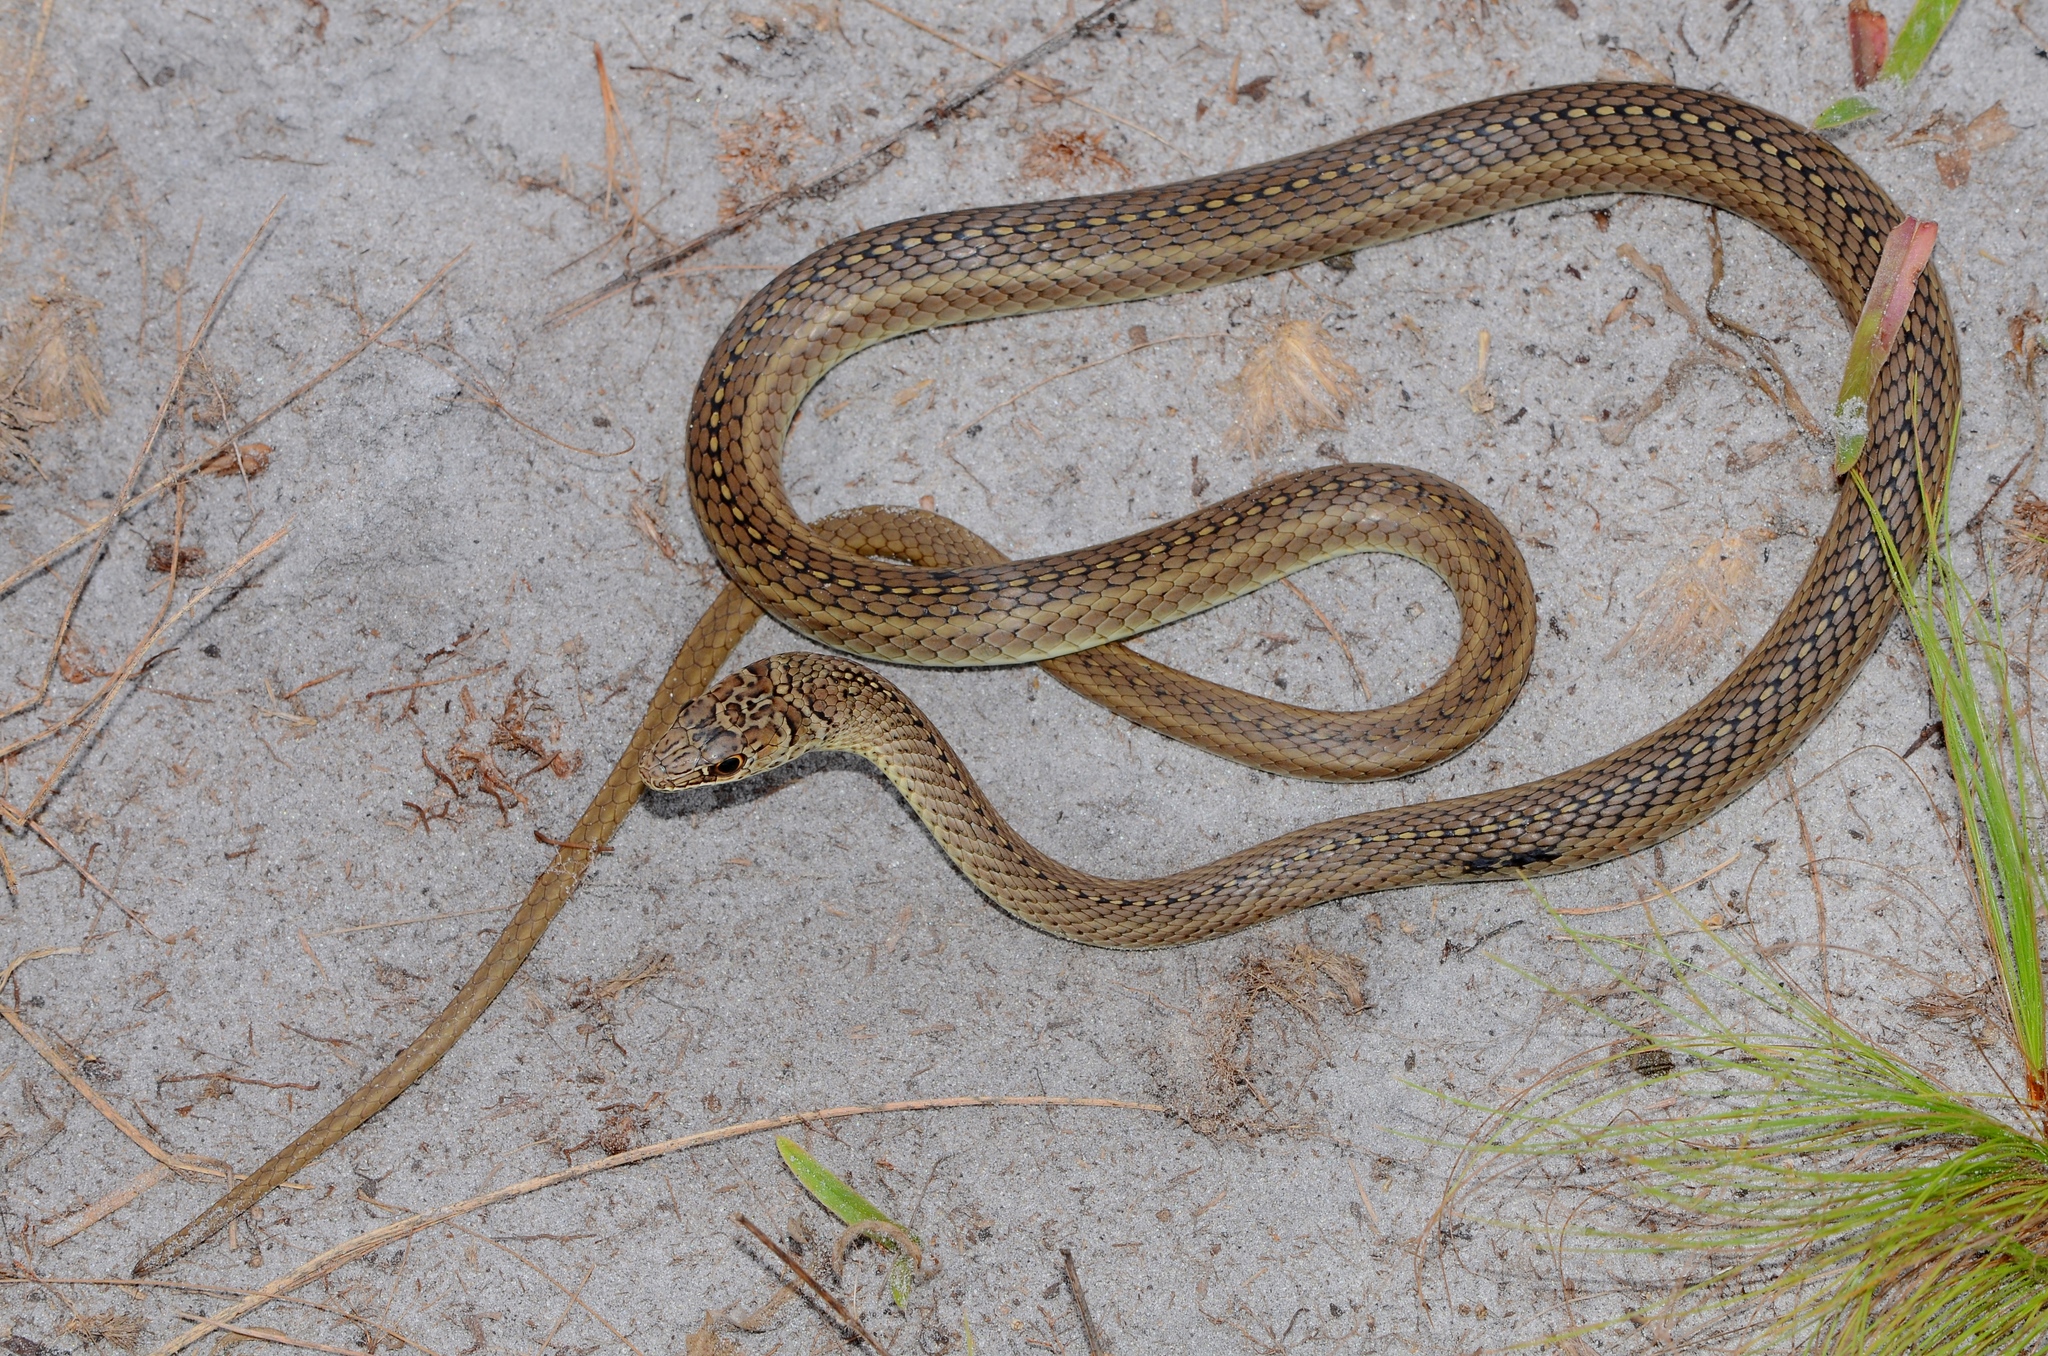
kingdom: Animalia
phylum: Chordata
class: Squamata
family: Psammophiidae
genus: Psammophis
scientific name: Psammophis mossambicus
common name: Olive grass snake
